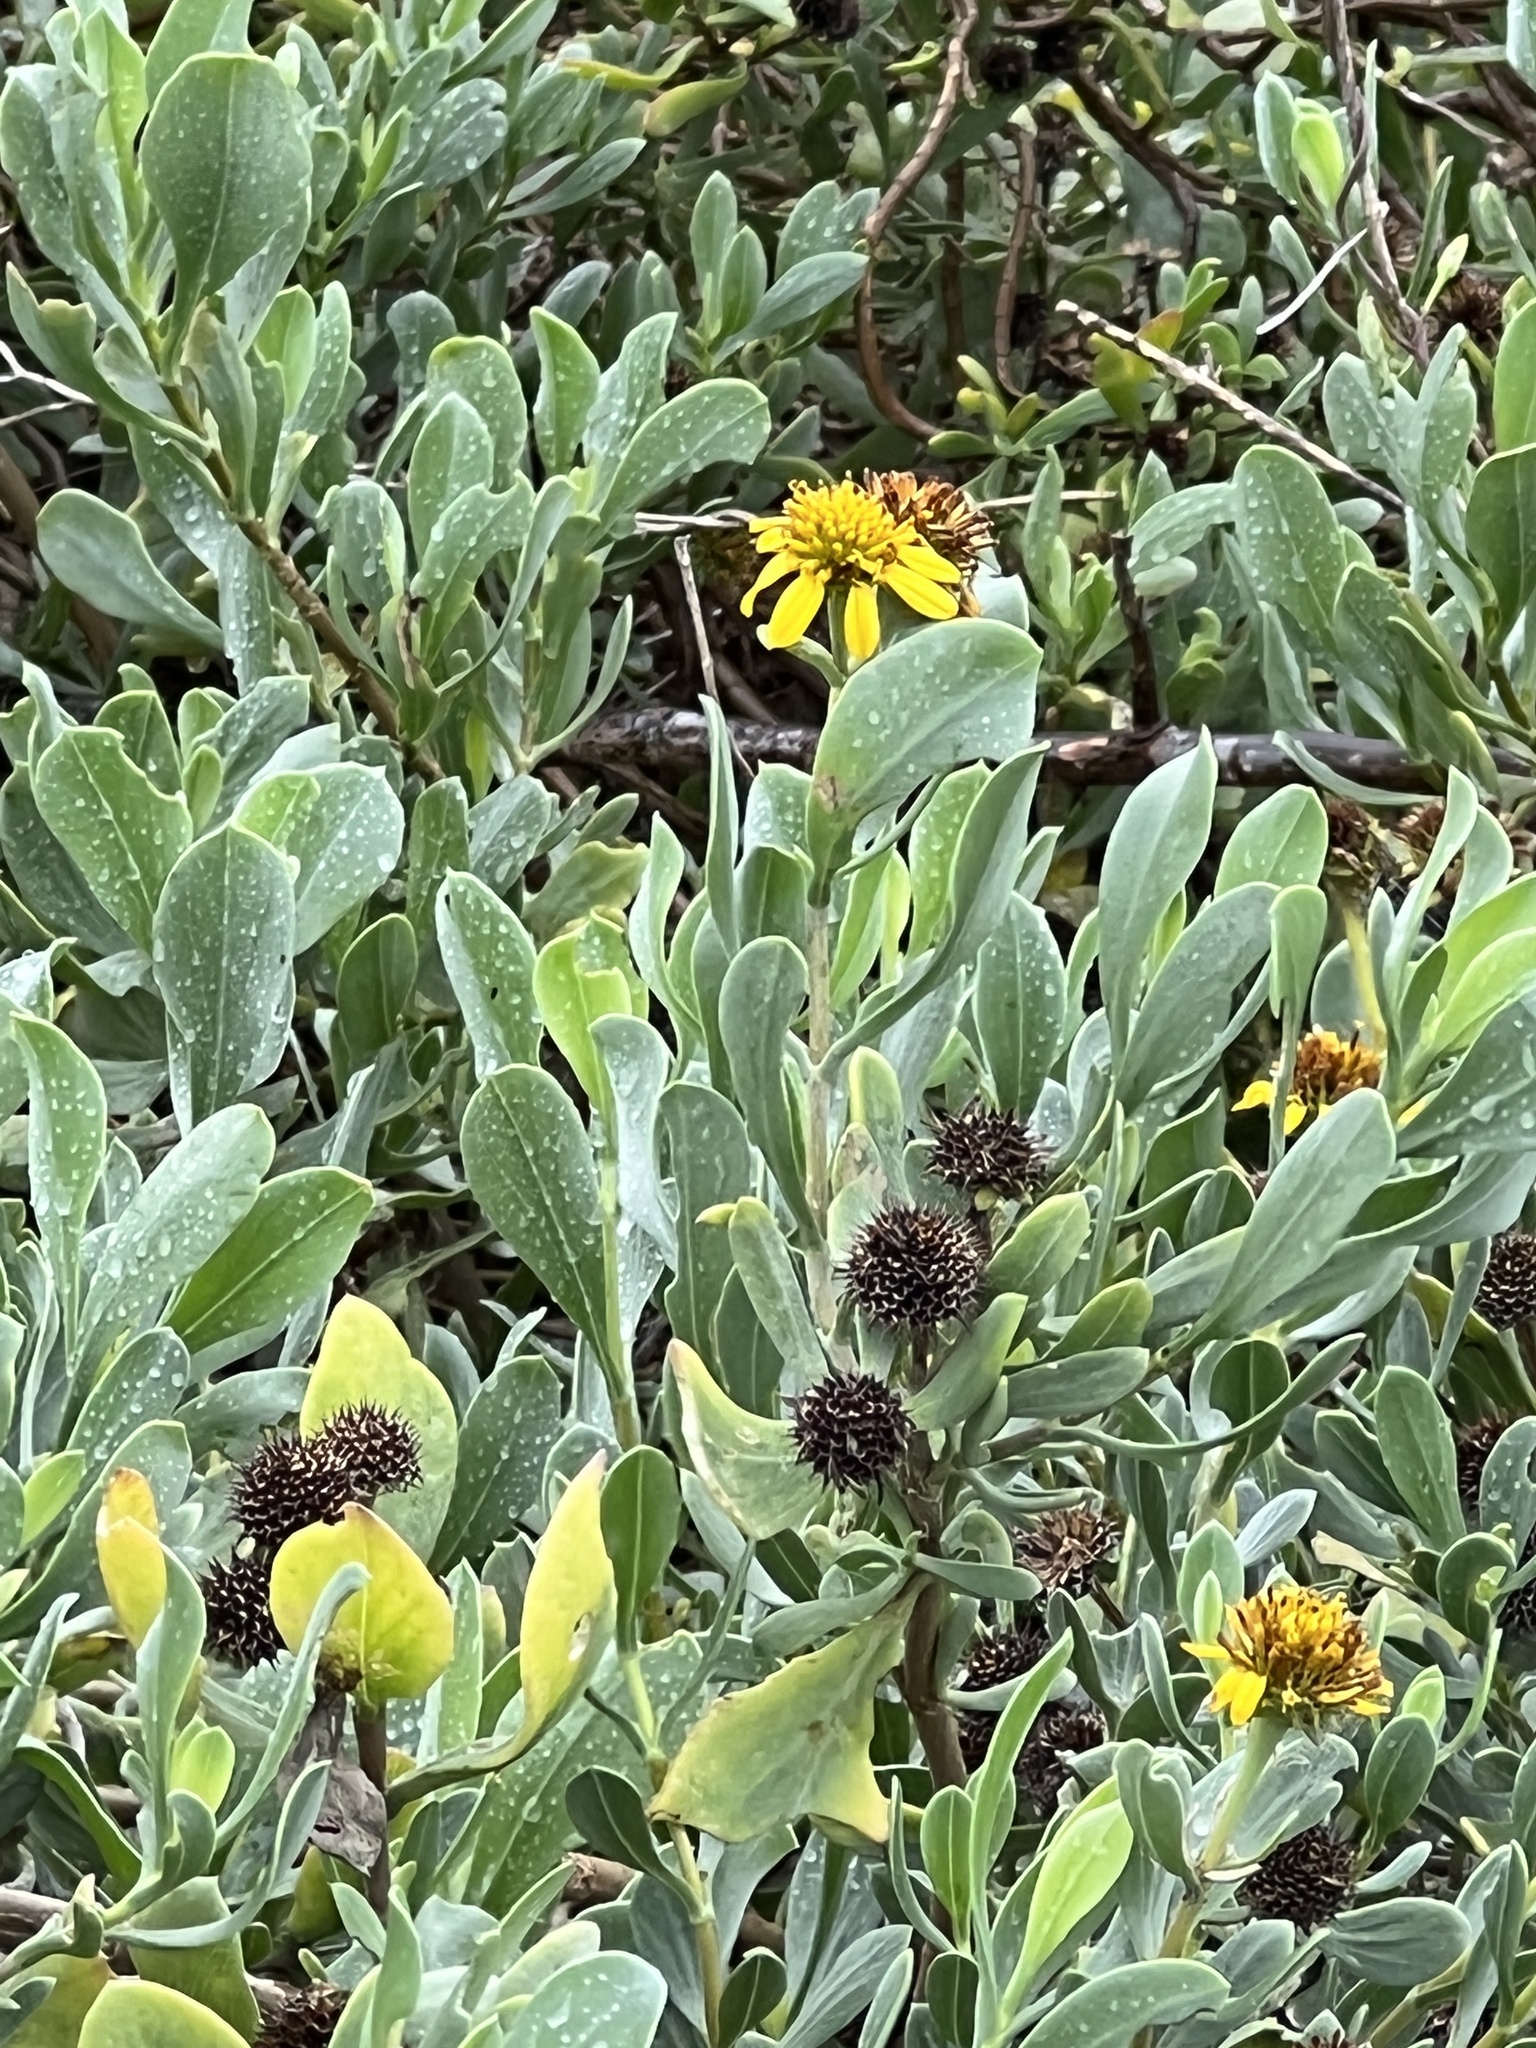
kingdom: Plantae
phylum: Tracheophyta
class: Magnoliopsida
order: Asterales
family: Asteraceae
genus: Borrichia
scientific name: Borrichia frutescens
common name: Sea oxeye
